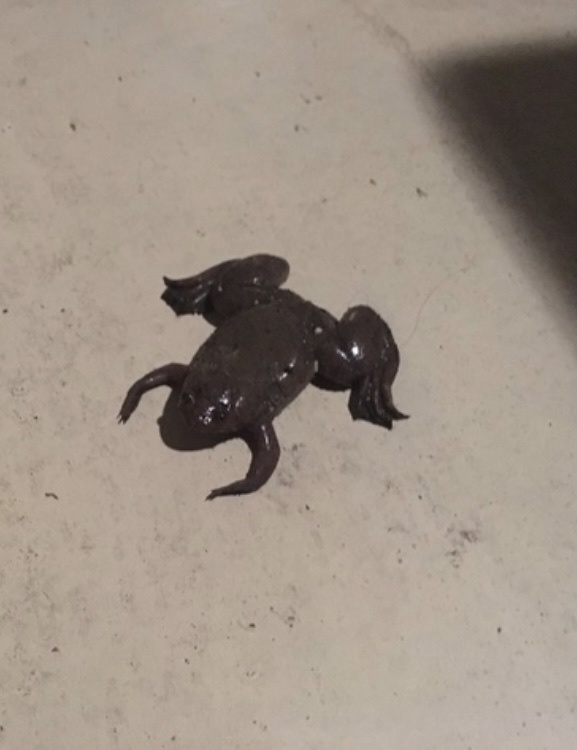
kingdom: Animalia
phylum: Chordata
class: Amphibia
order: Anura
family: Pipidae
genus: Xenopus
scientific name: Xenopus laevis
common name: African clawed frog
